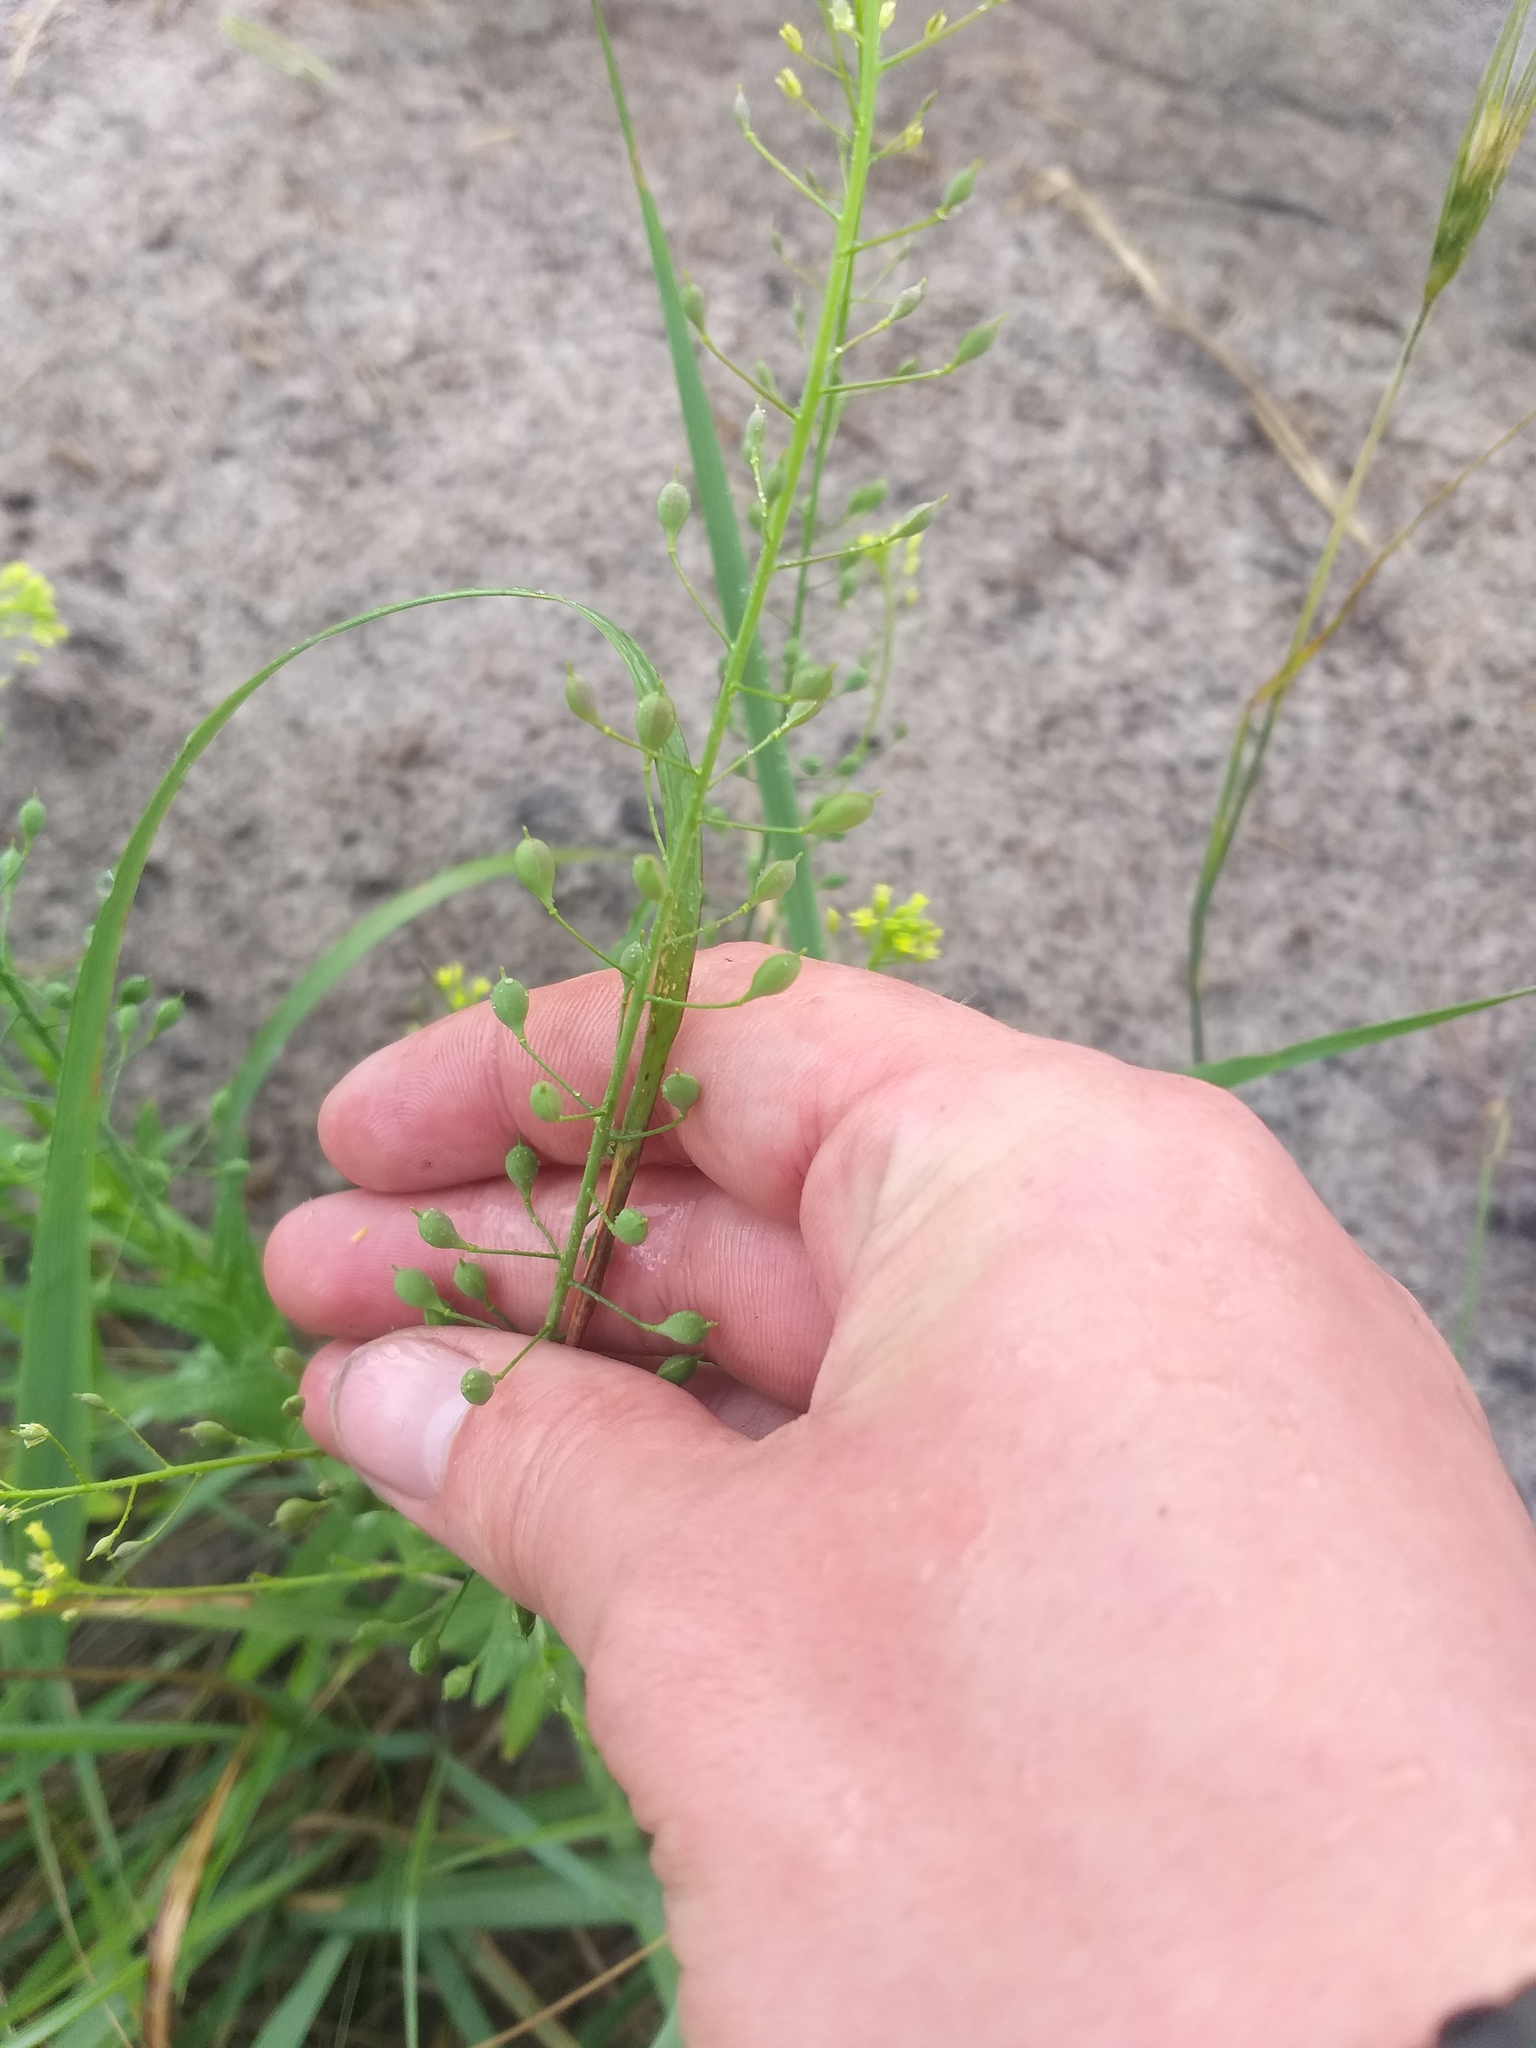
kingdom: Plantae
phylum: Tracheophyta
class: Magnoliopsida
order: Brassicales
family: Brassicaceae
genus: Camelina
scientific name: Camelina microcarpa
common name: Lesser gold-of-pleasure
